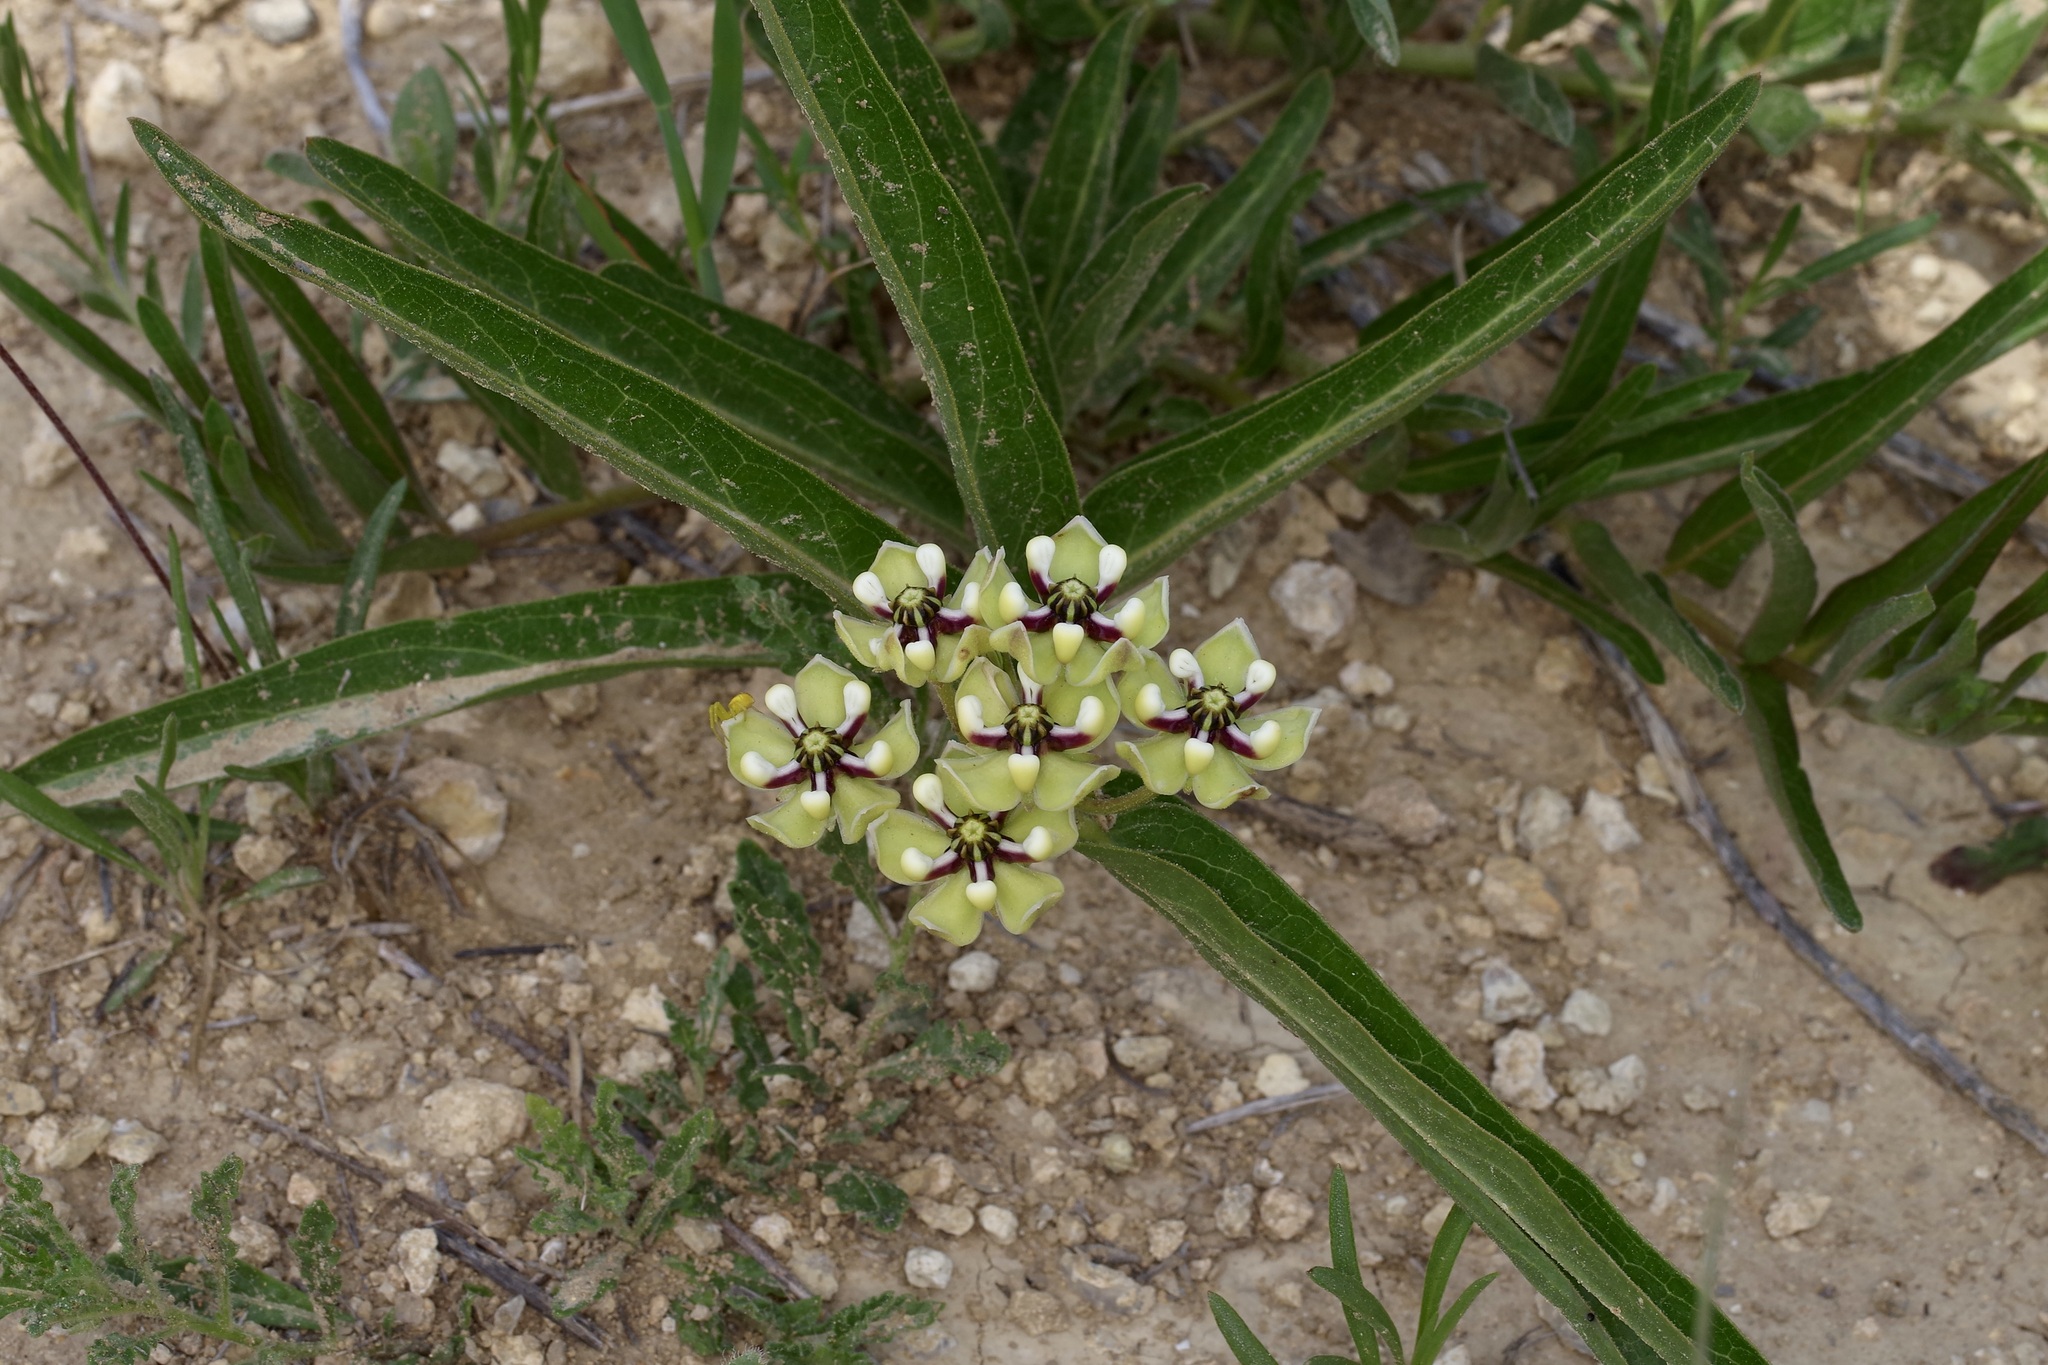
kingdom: Plantae
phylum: Tracheophyta
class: Magnoliopsida
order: Gentianales
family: Apocynaceae
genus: Asclepias
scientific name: Asclepias asperula
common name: Antelope horns
